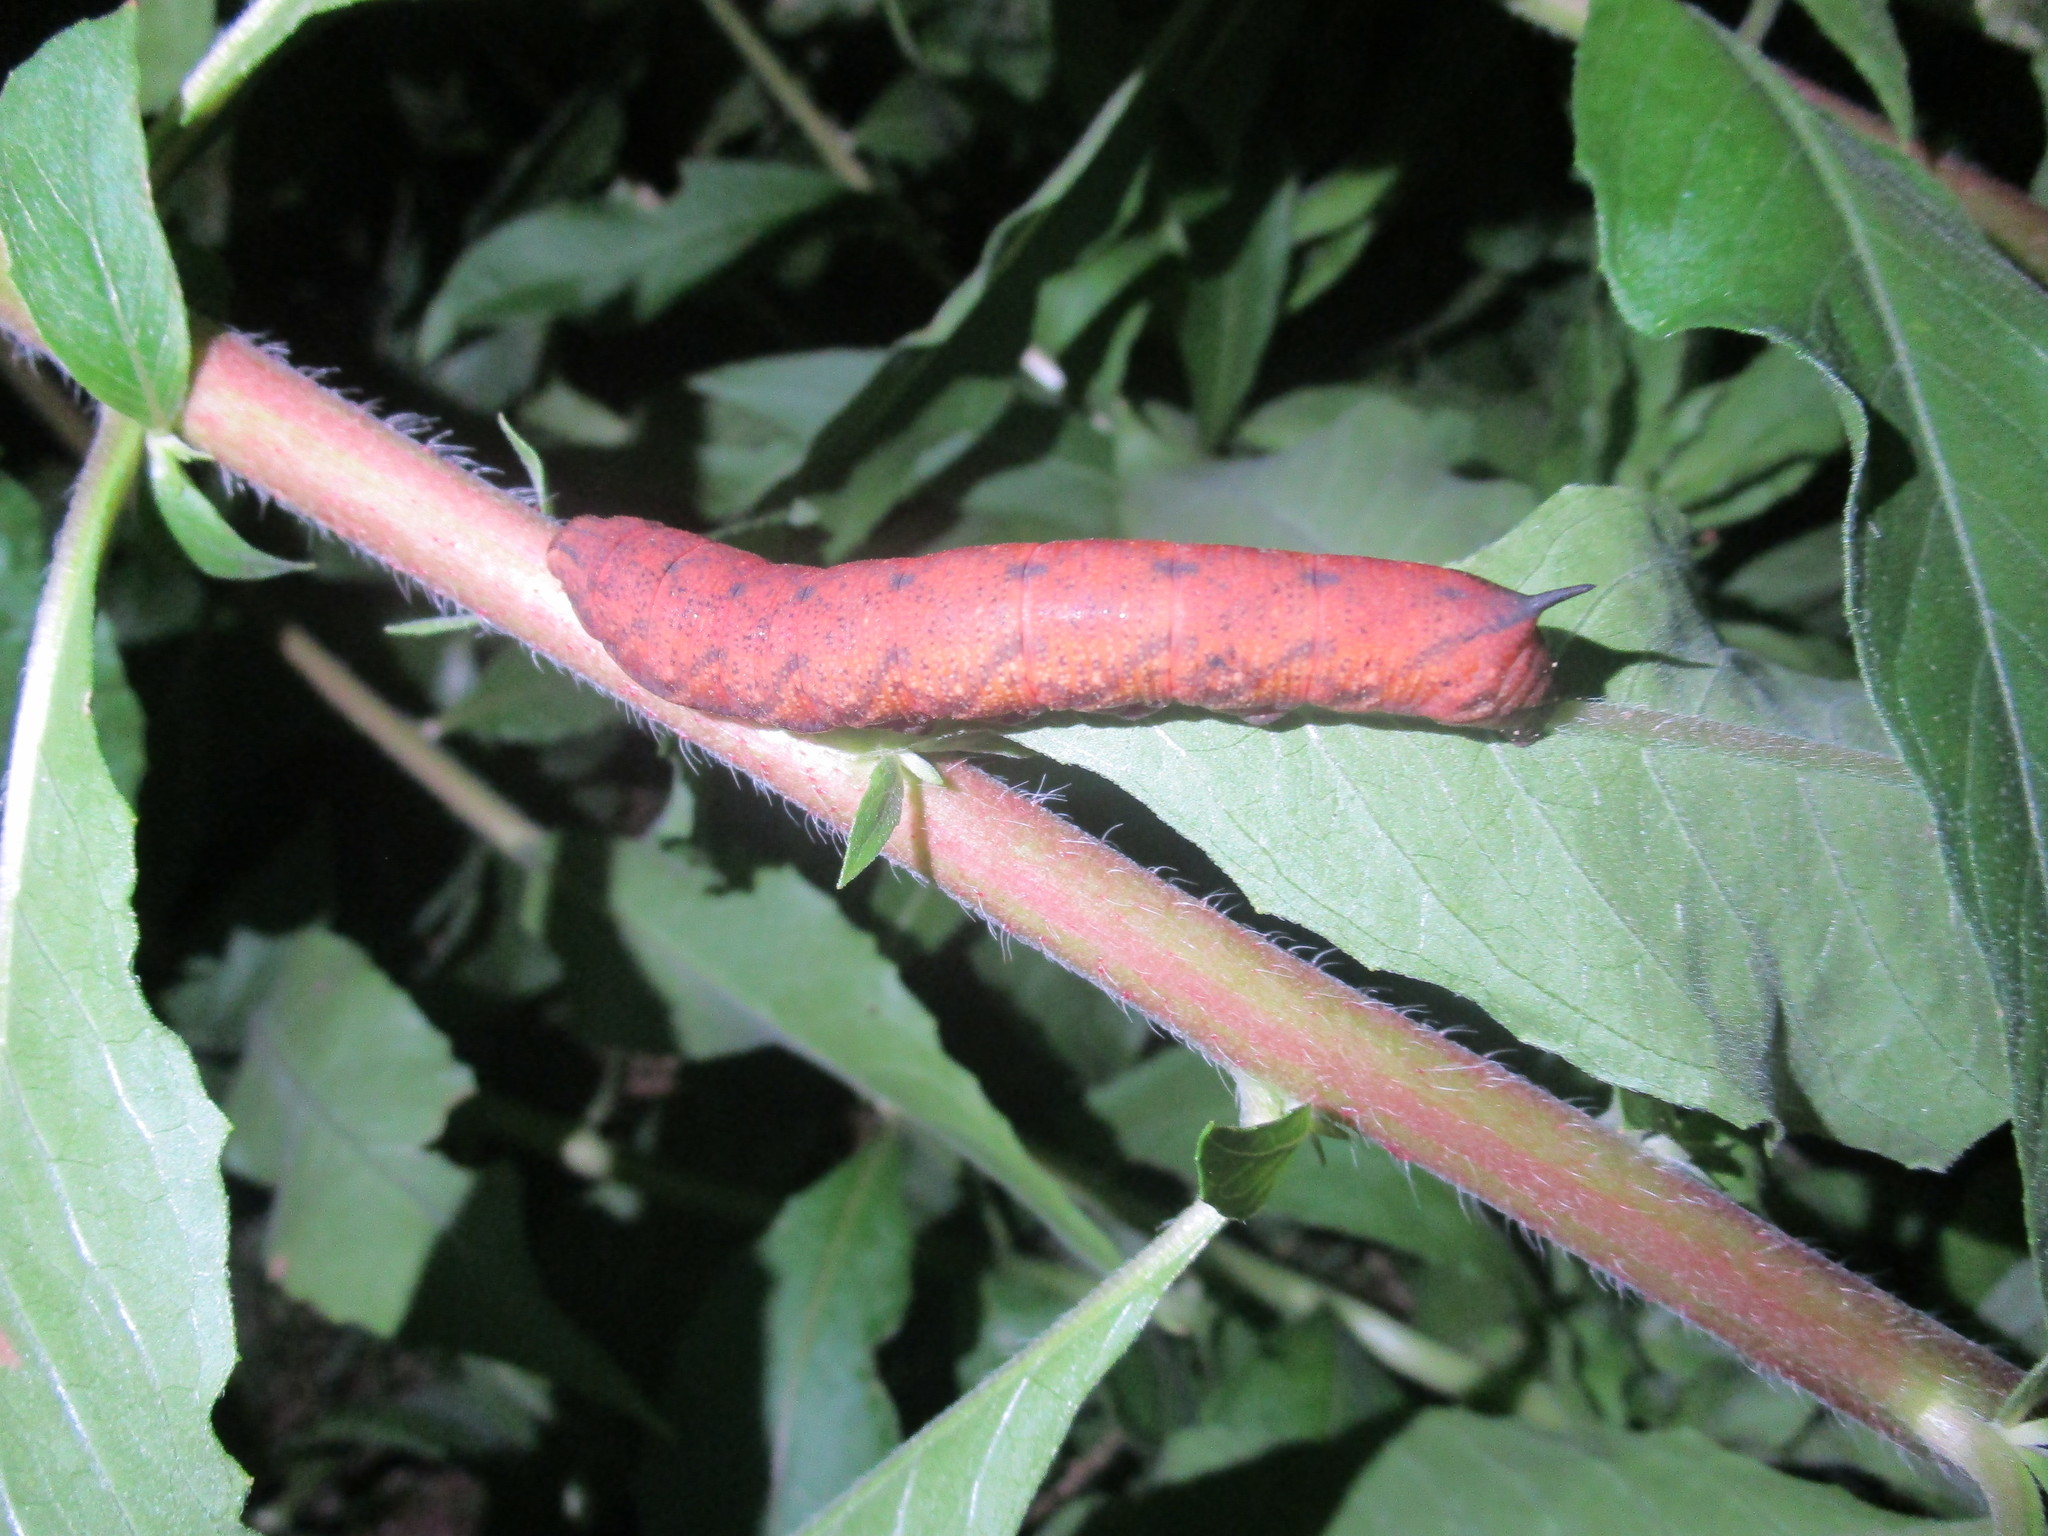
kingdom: Animalia
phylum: Arthropoda
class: Insecta
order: Lepidoptera
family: Sphingidae
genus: Amphion
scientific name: Amphion floridensis
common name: Nessus sphinx
